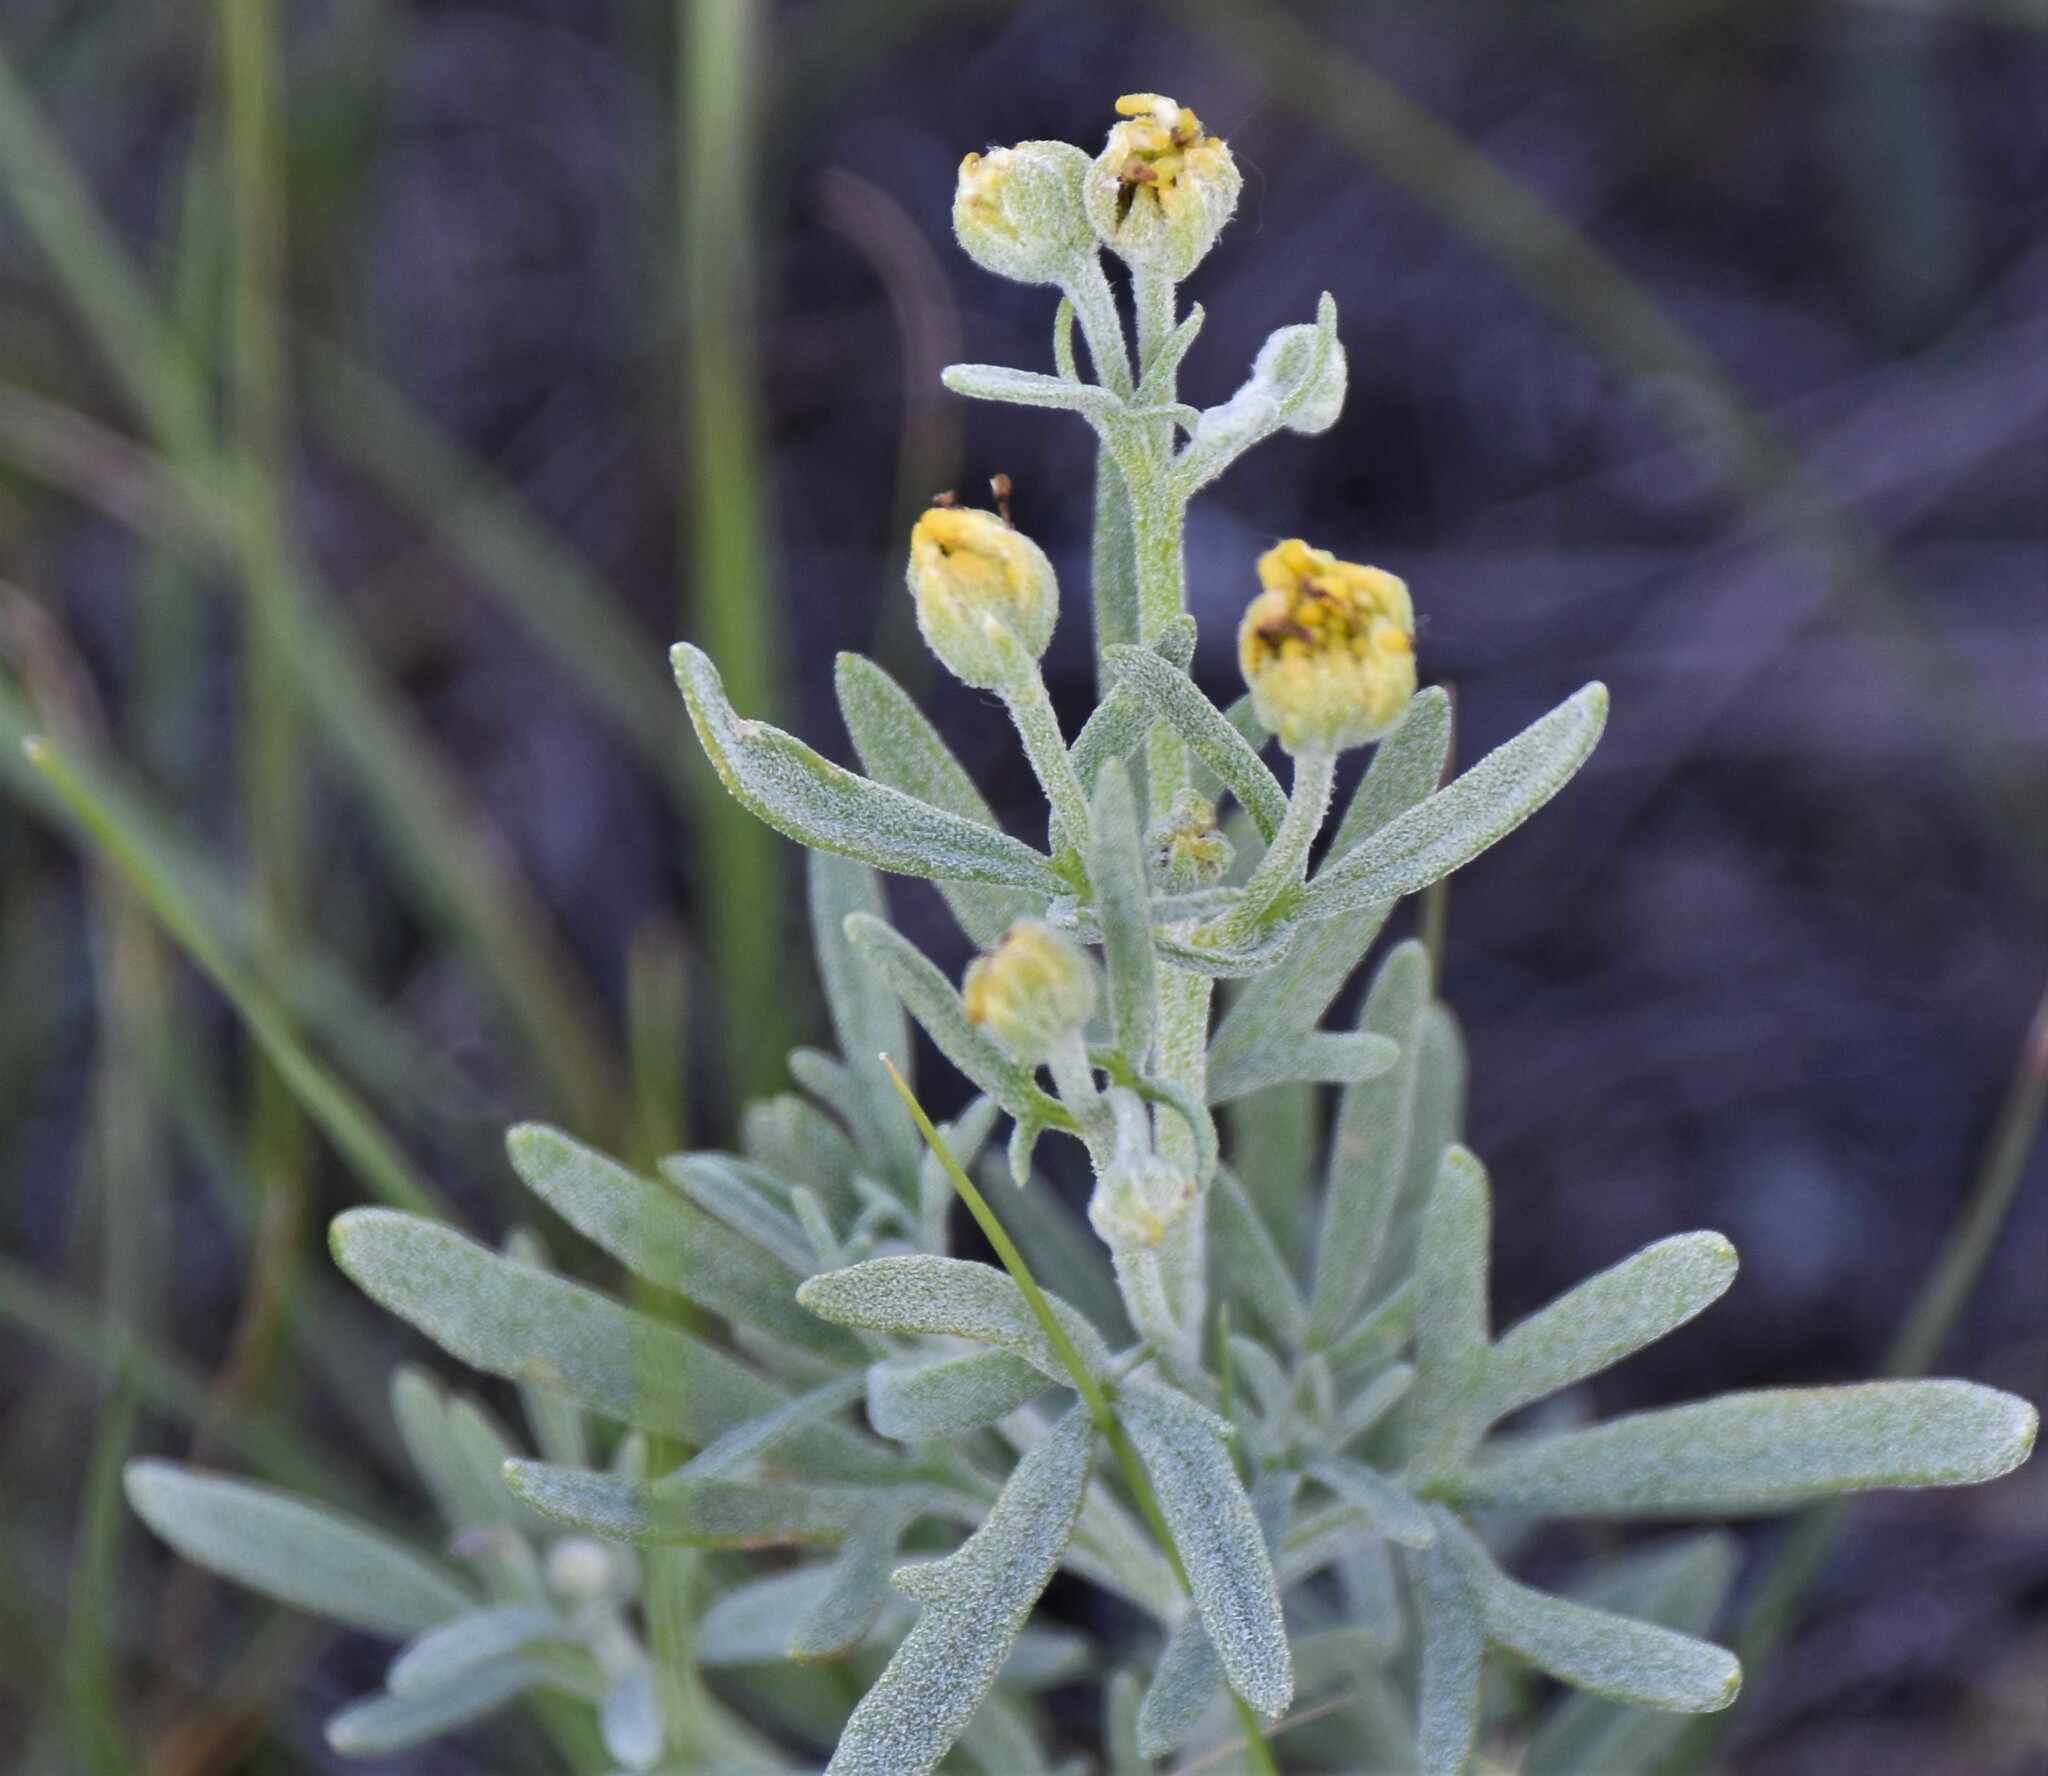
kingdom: Plantae
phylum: Tracheophyta
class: Magnoliopsida
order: Asterales
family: Asteraceae
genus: Picradeniopsis
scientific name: Picradeniopsis oppositifolia
